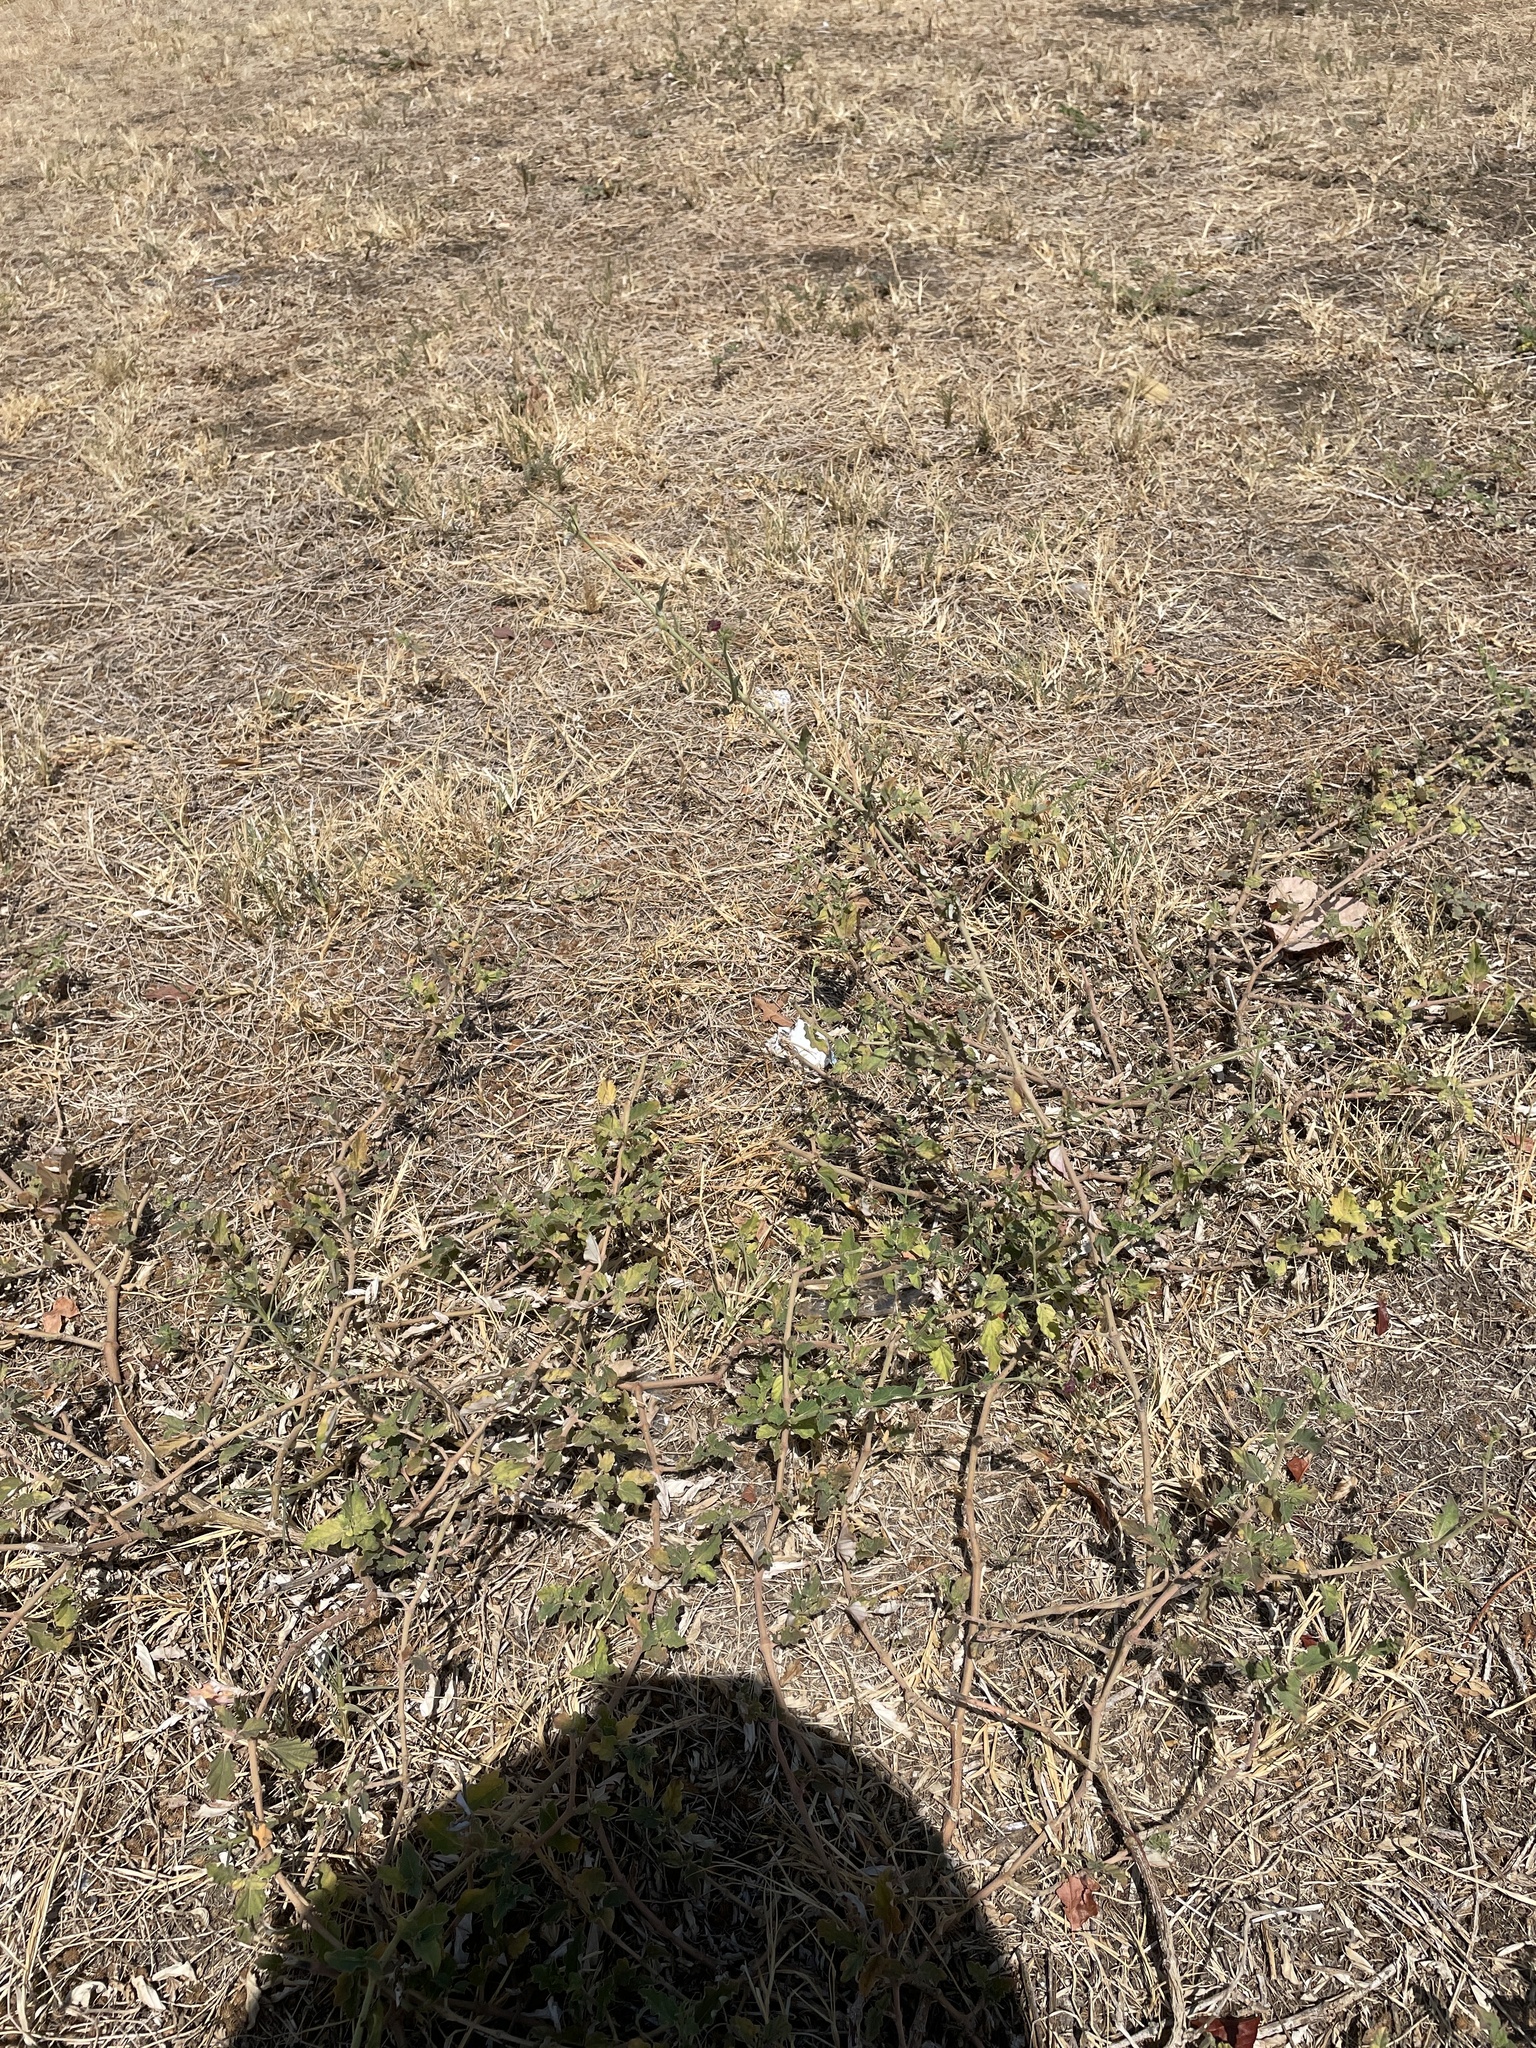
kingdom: Plantae
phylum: Tracheophyta
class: Magnoliopsida
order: Caryophyllales
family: Nyctaginaceae
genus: Boerhavia
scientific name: Boerhavia coccinea
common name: Scarlet spiderling
